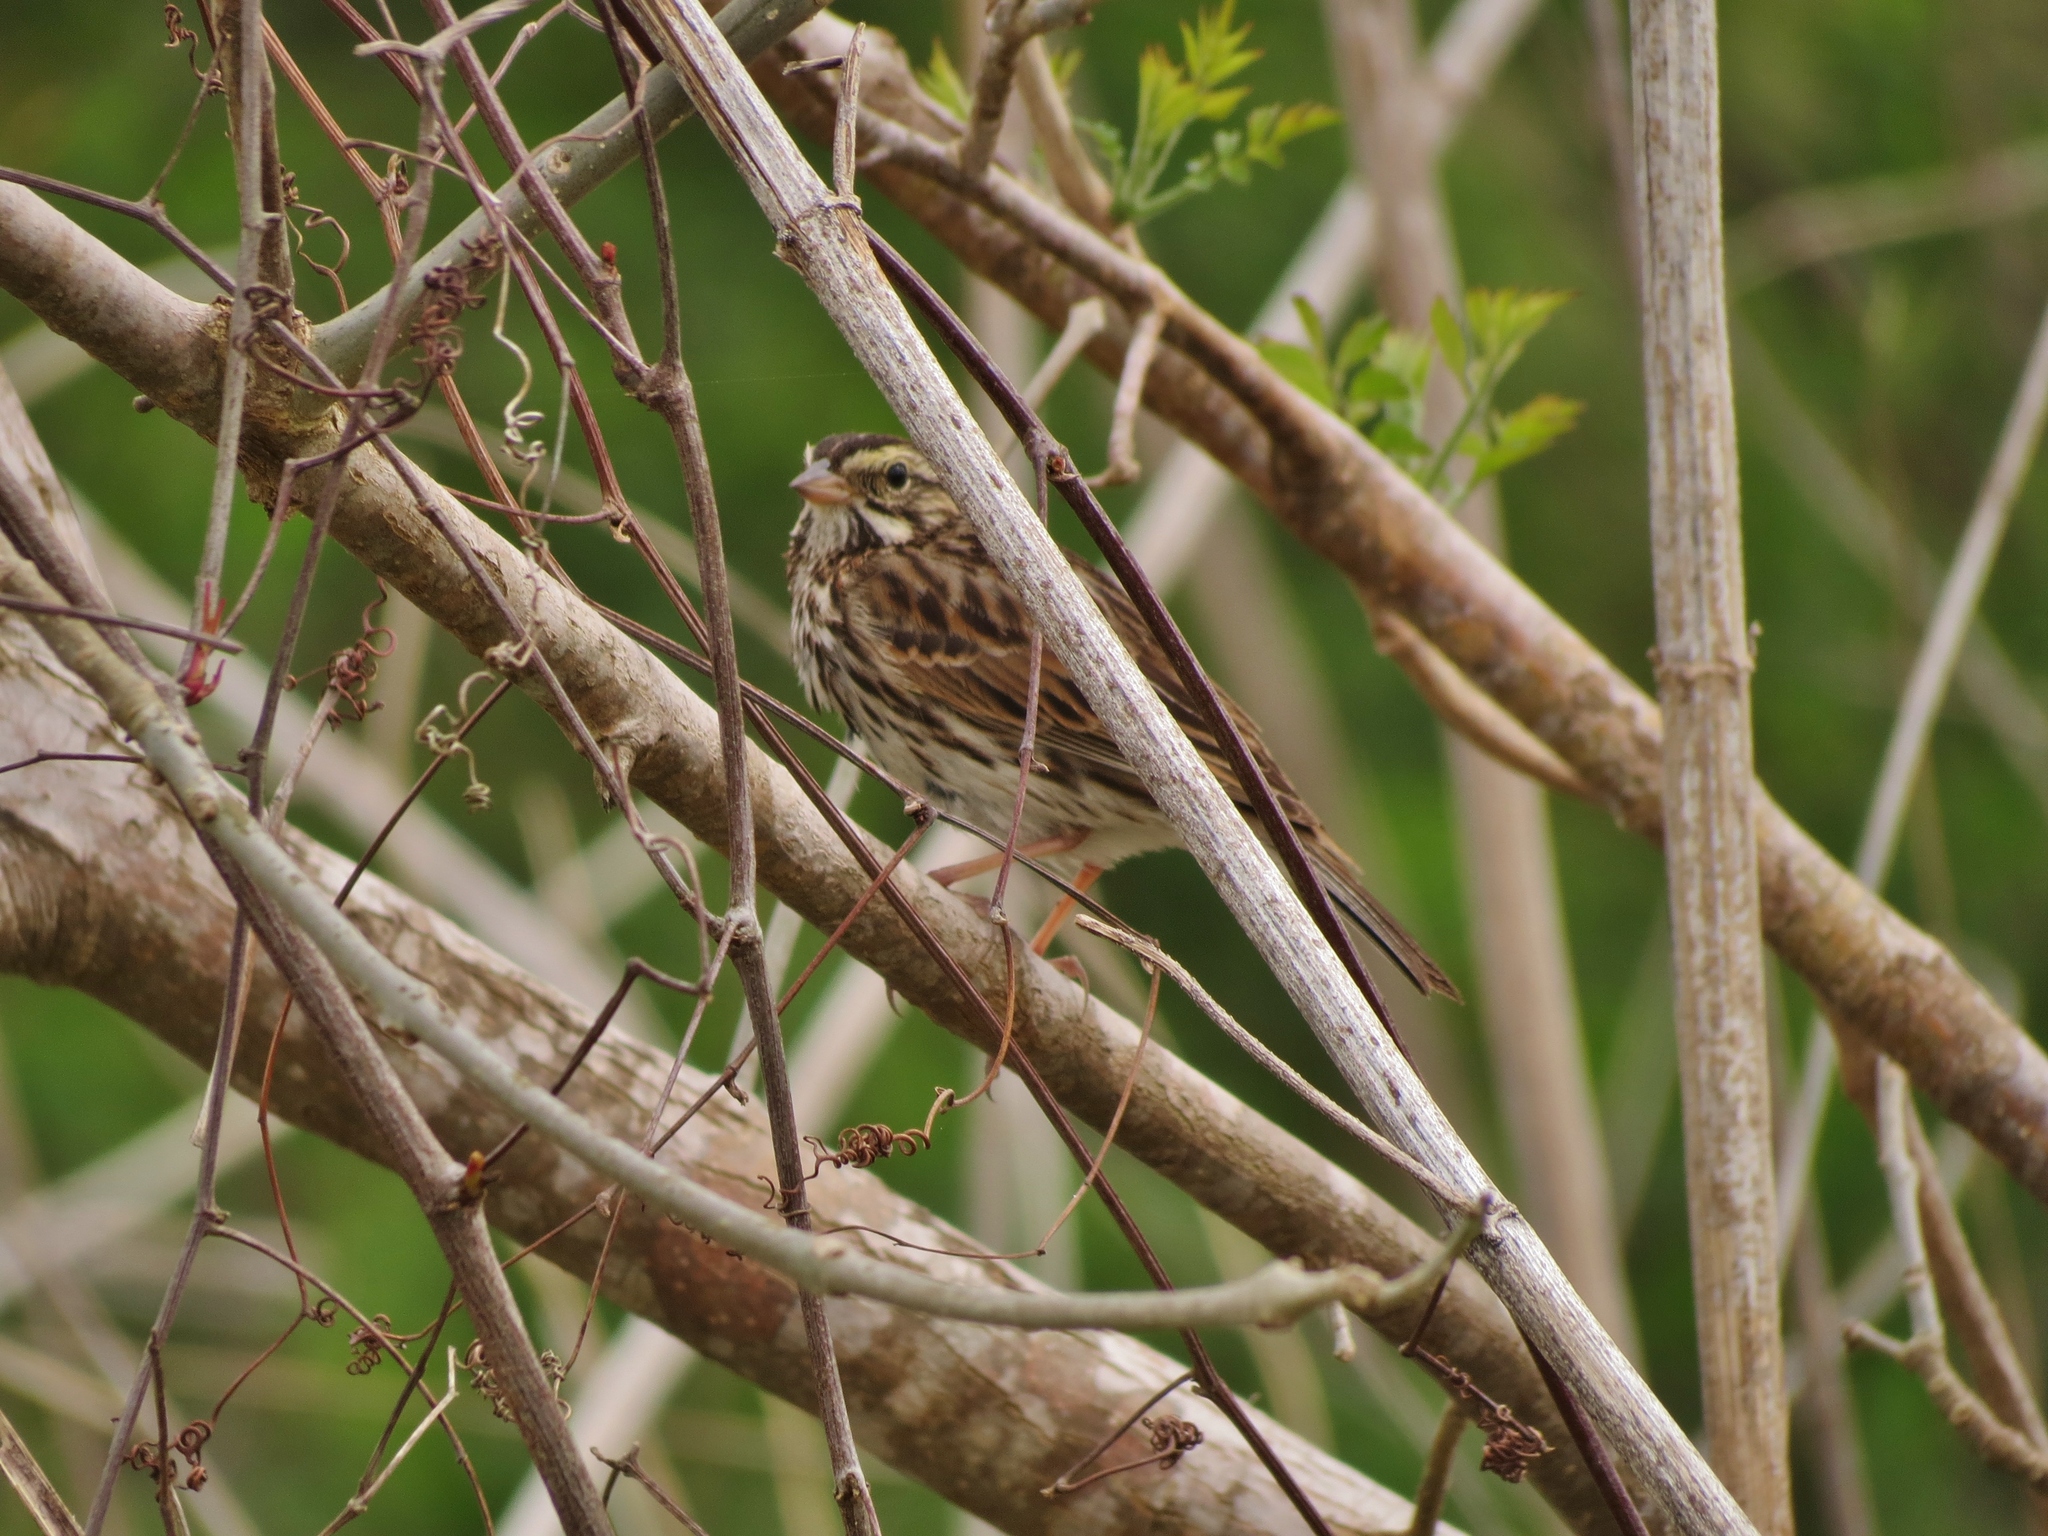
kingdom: Animalia
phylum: Chordata
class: Aves
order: Passeriformes
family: Passerellidae
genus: Passerculus
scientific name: Passerculus sandwichensis
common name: Savannah sparrow
